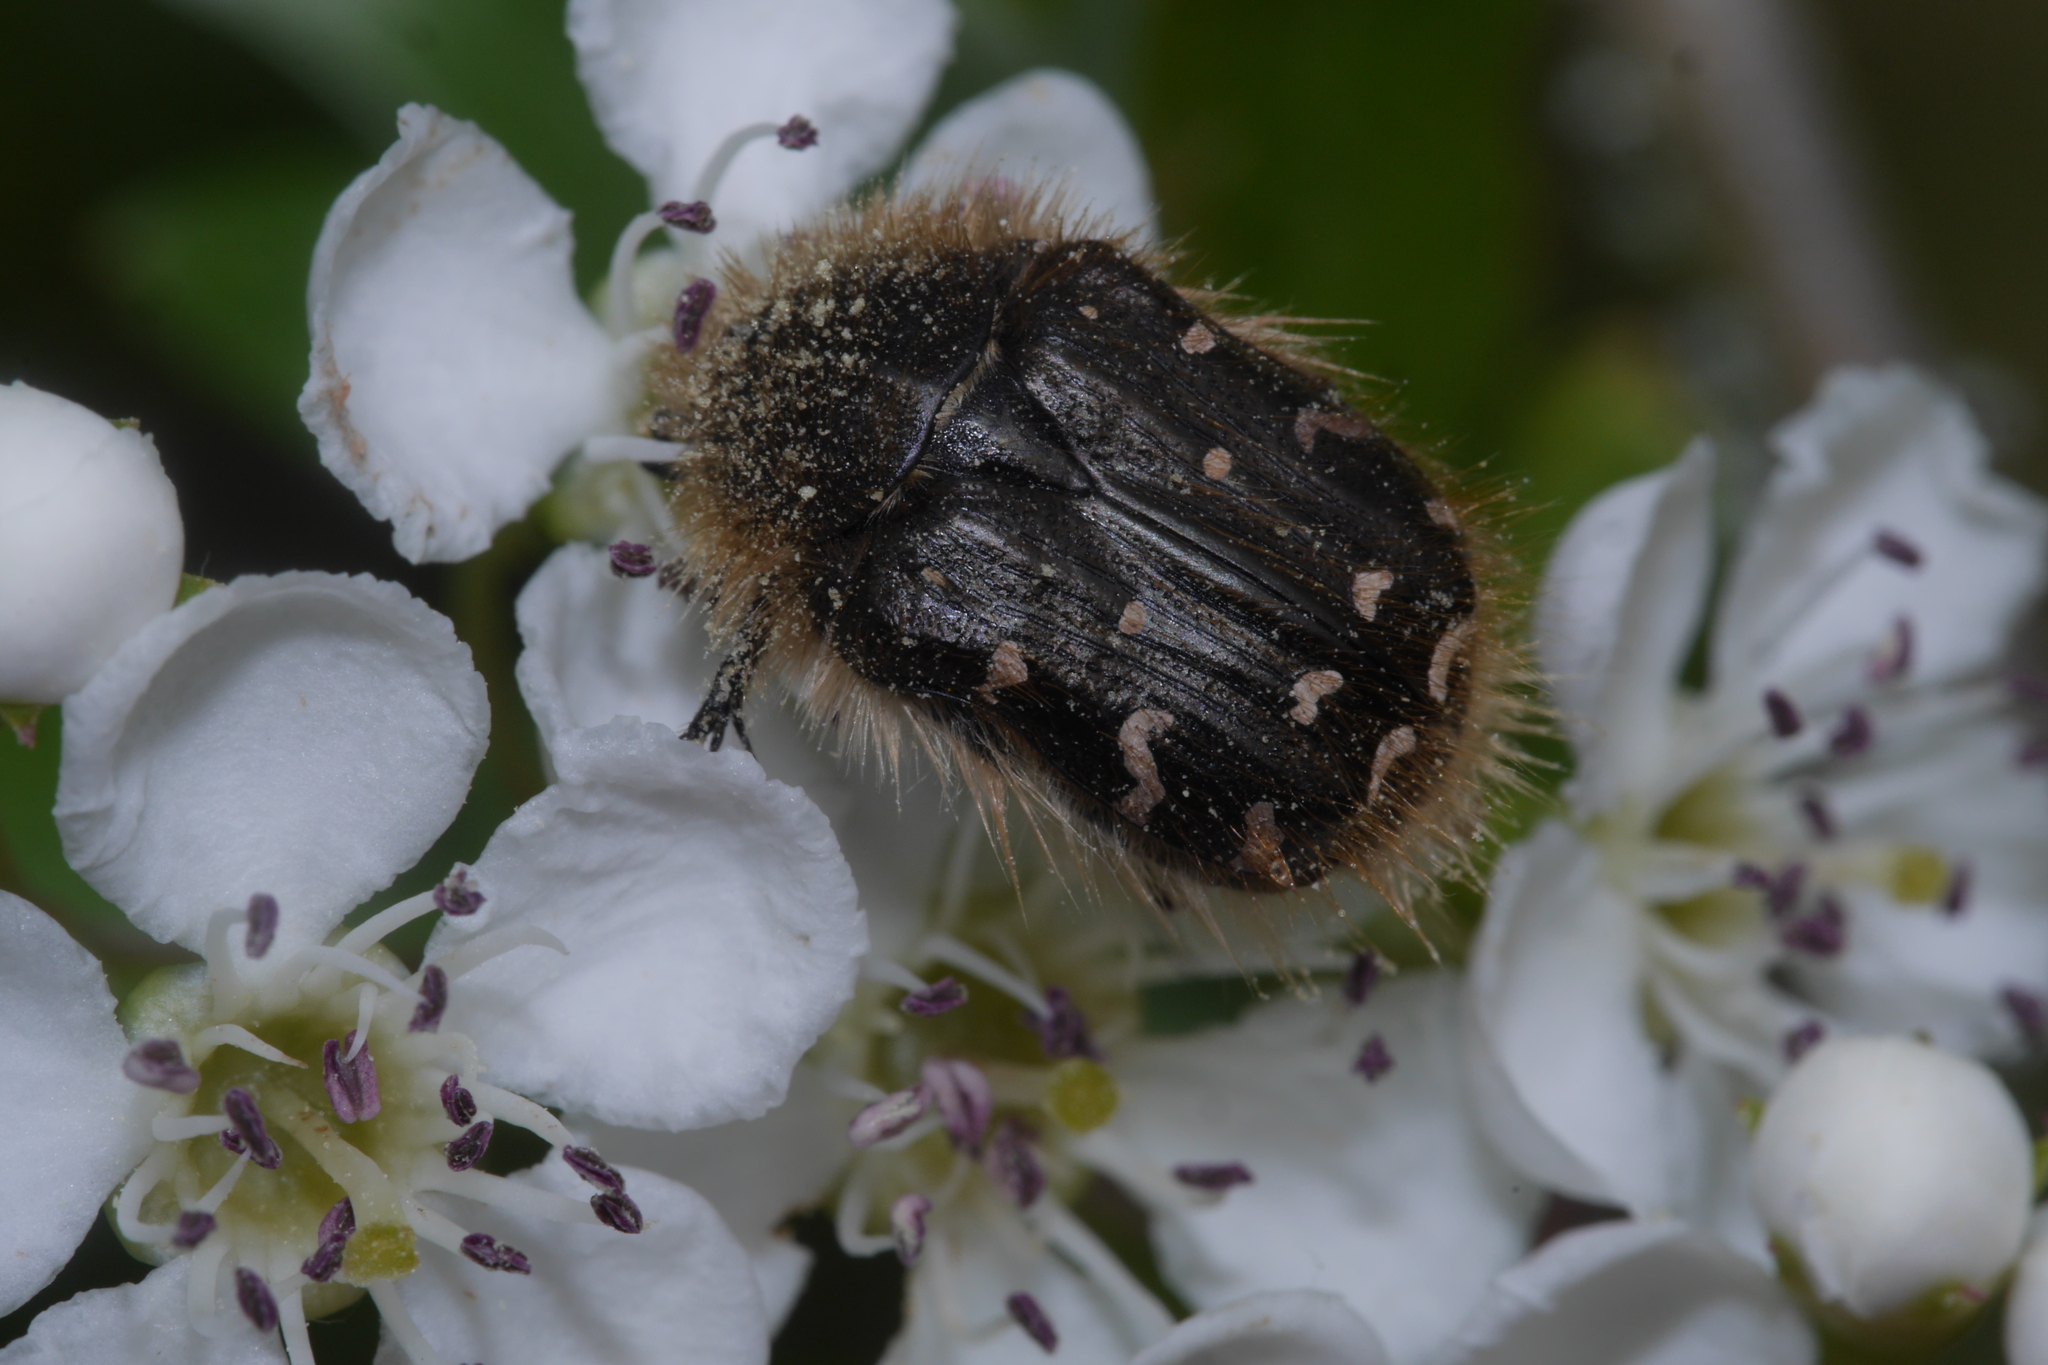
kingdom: Animalia
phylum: Arthropoda
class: Insecta
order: Coleoptera
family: Scarabaeidae
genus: Tropinota
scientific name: Tropinota hirta
